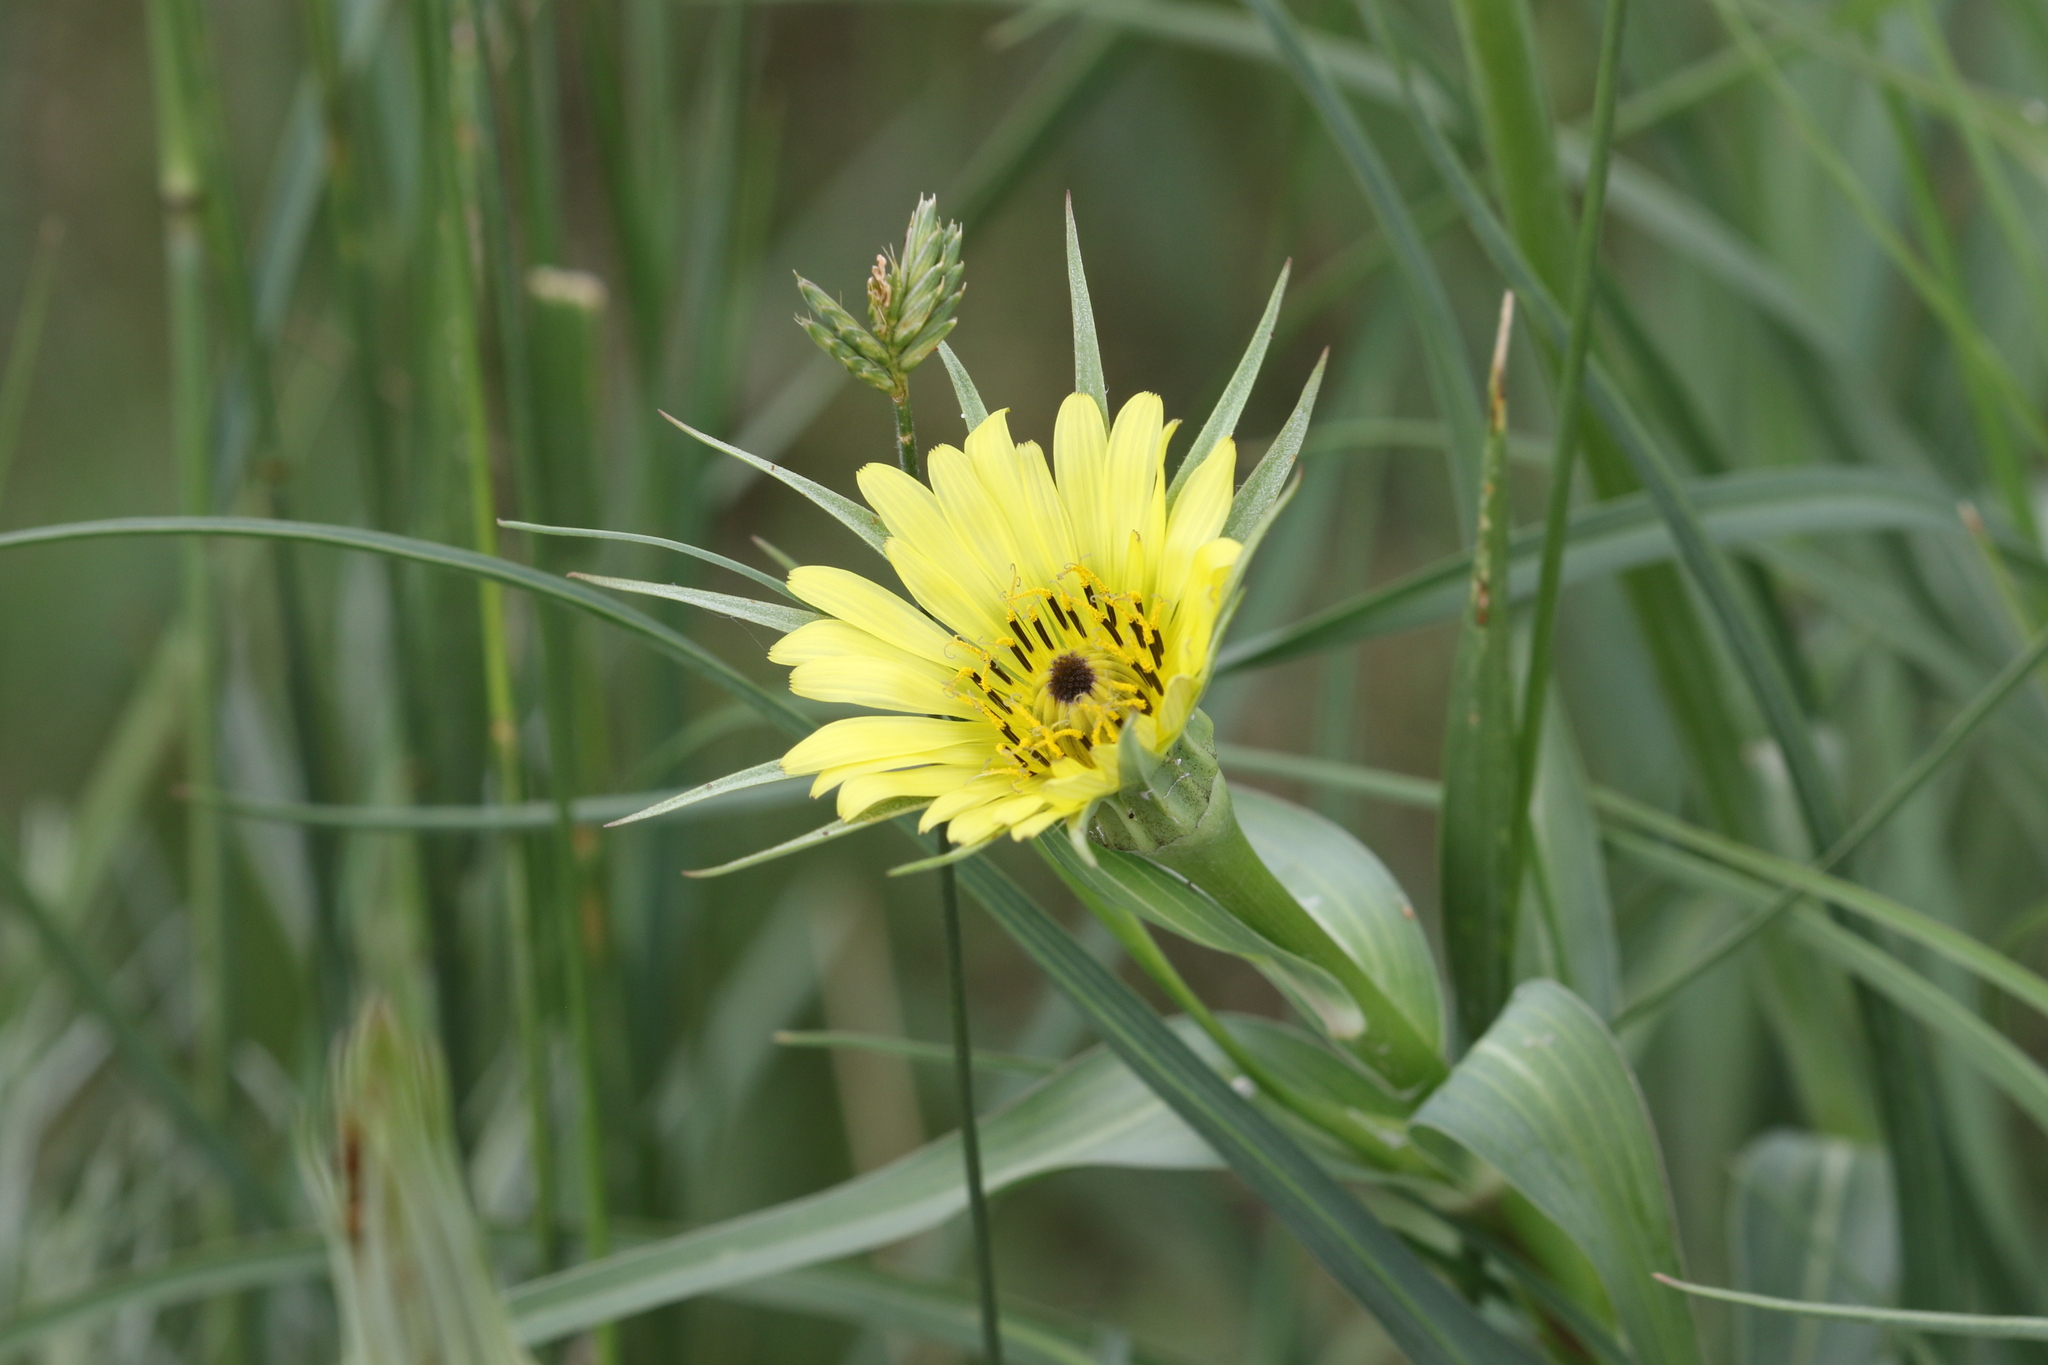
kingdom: Plantae
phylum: Tracheophyta
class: Magnoliopsida
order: Asterales
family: Asteraceae
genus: Tragopogon
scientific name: Tragopogon dubius
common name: Yellow salsify
